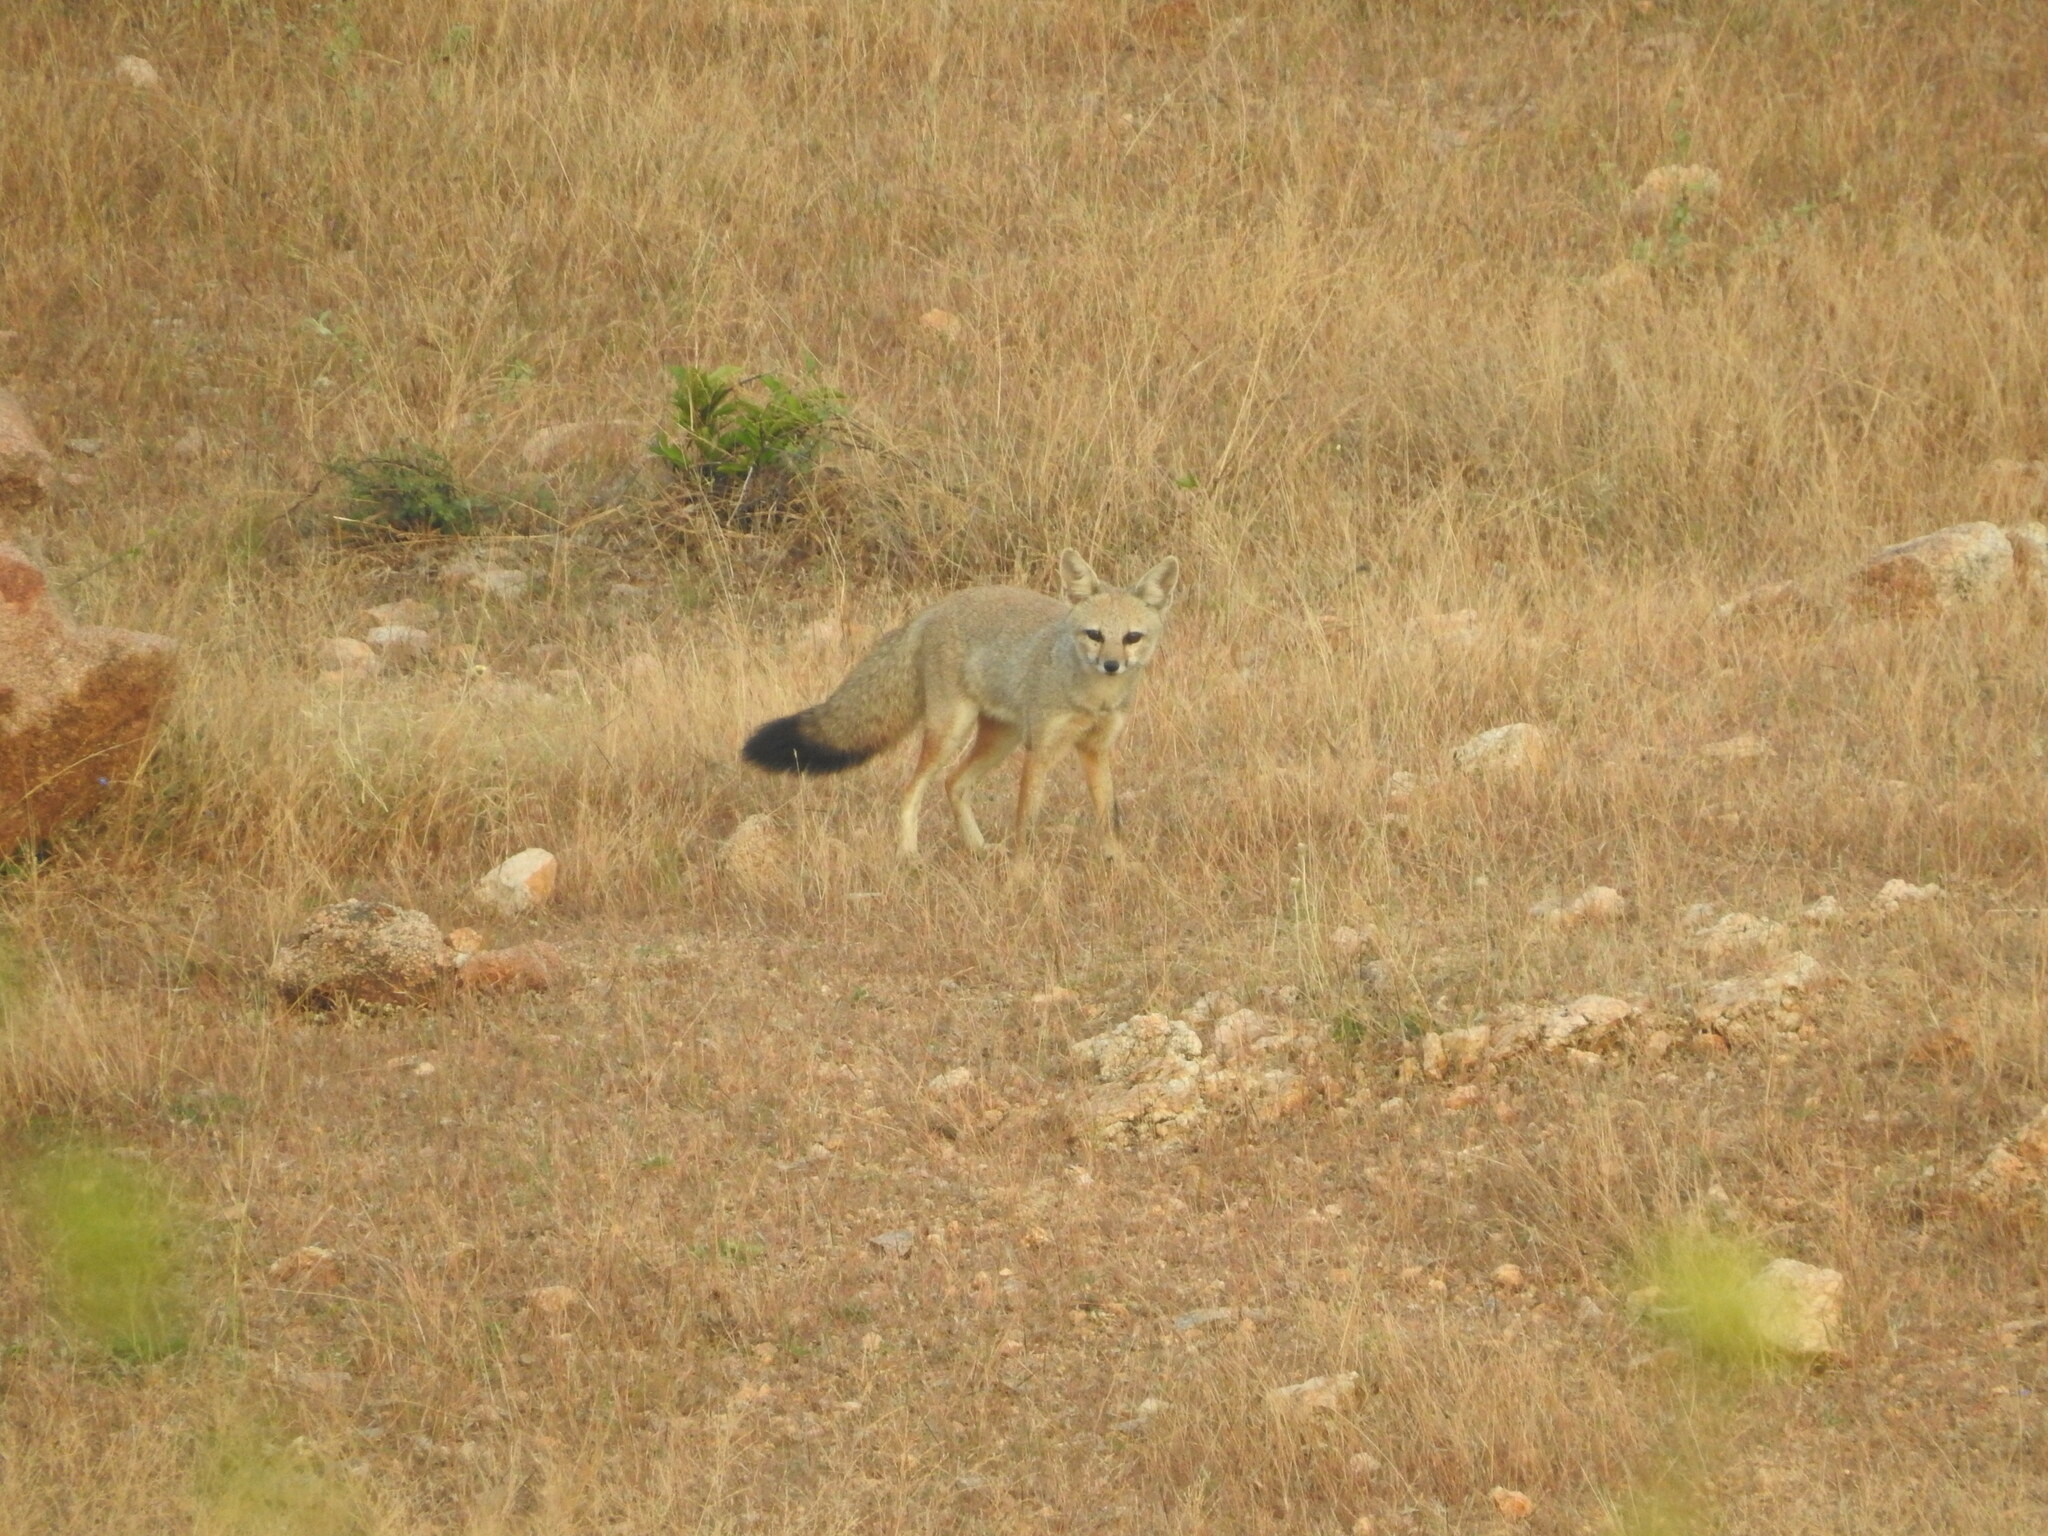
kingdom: Animalia
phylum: Chordata
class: Mammalia
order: Carnivora
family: Canidae
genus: Vulpes
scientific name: Vulpes bengalensis
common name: Bengal fox
